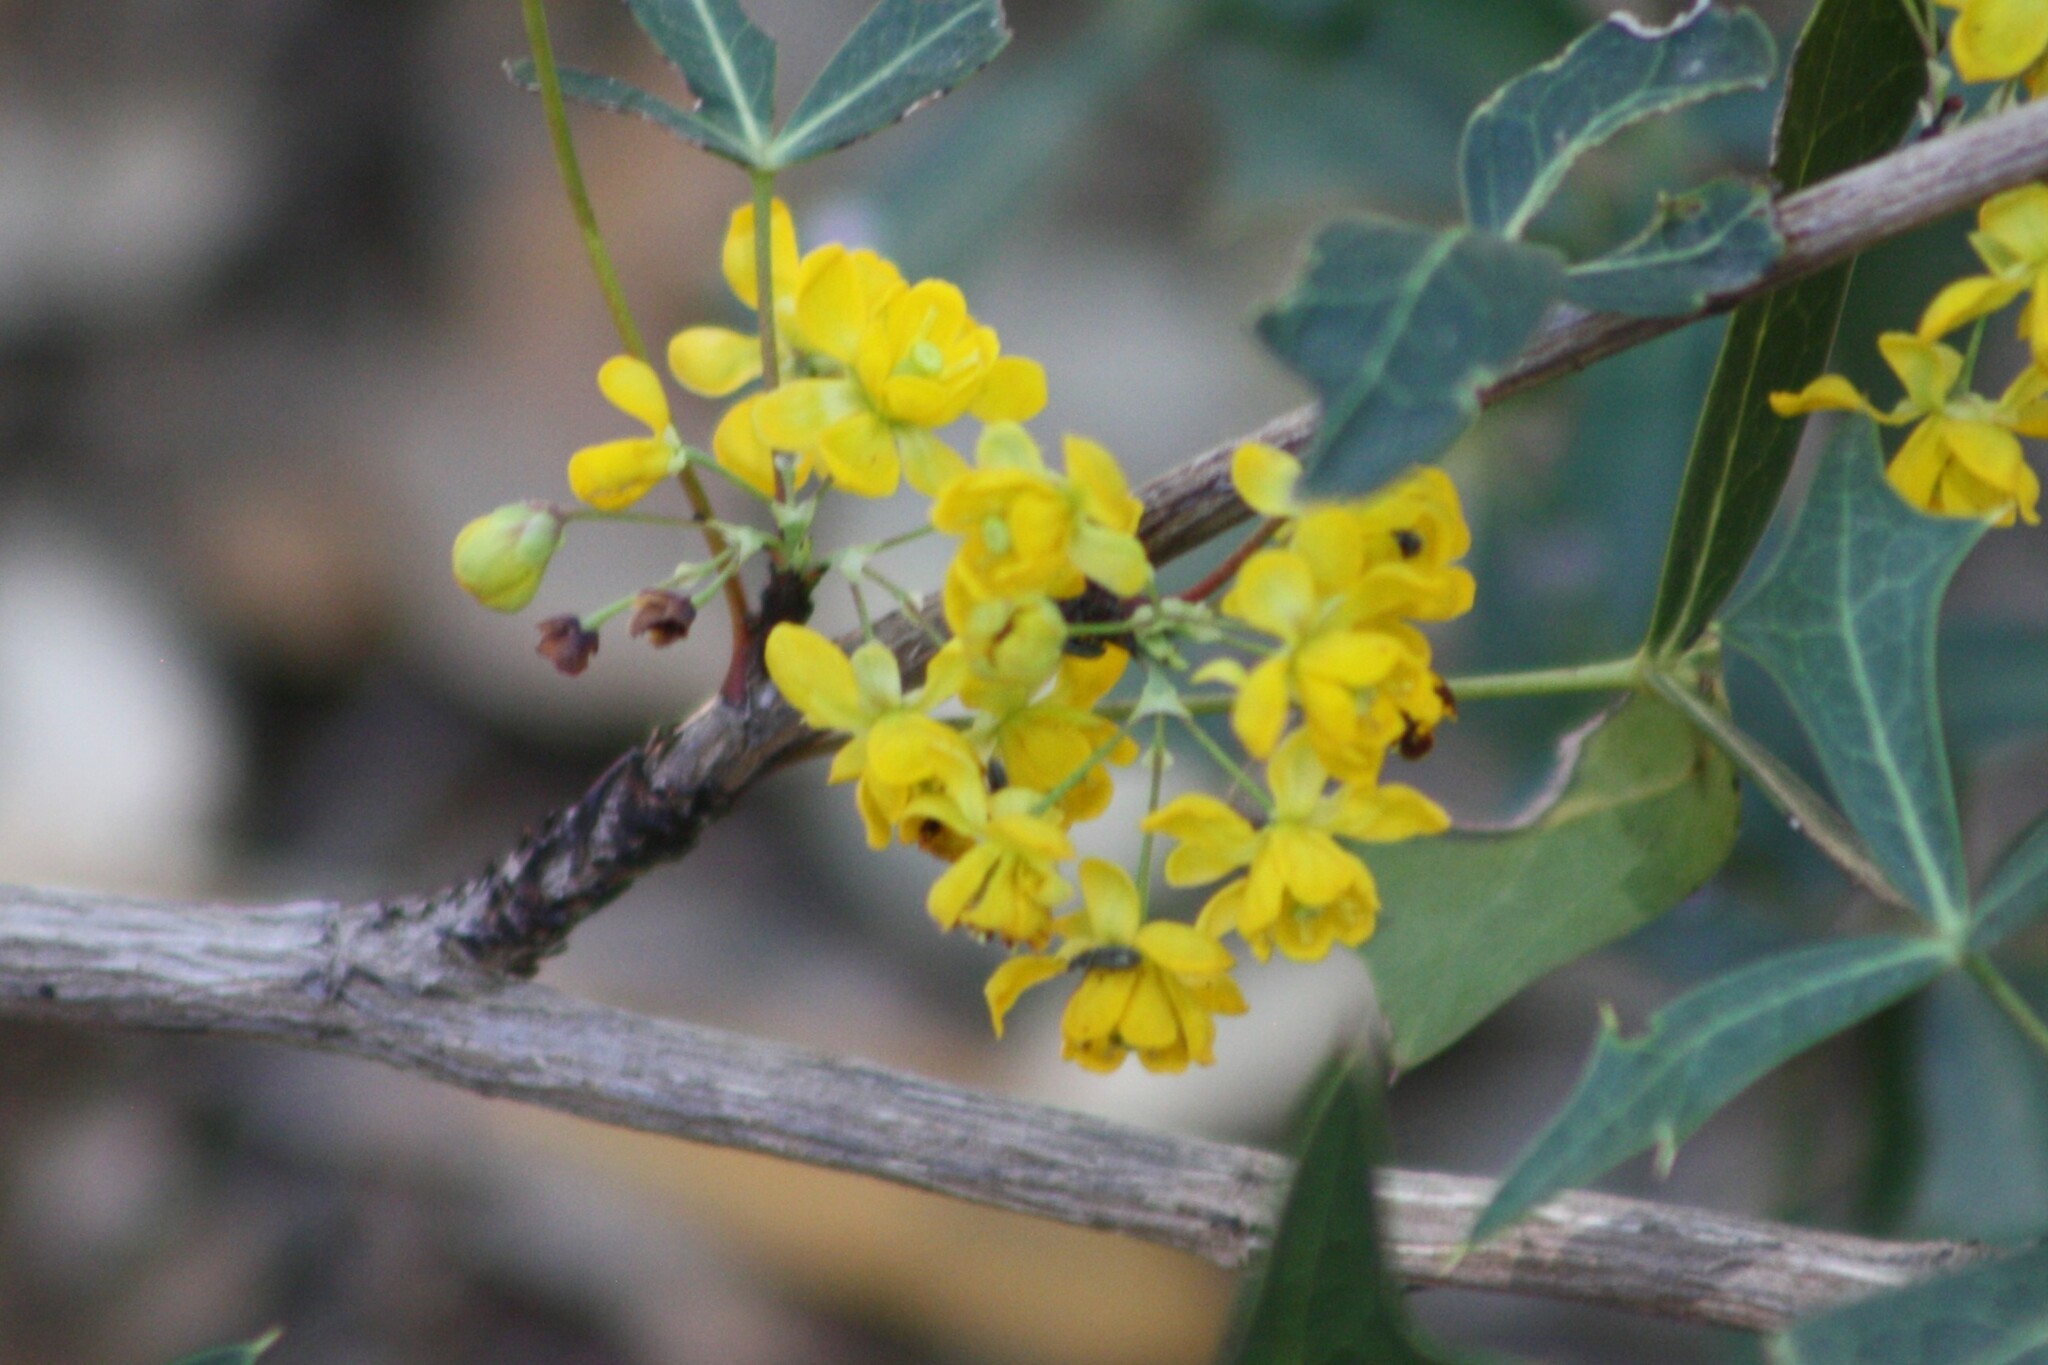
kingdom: Plantae
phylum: Tracheophyta
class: Magnoliopsida
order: Ranunculales
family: Berberidaceae
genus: Alloberberis
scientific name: Alloberberis trifoliolata
